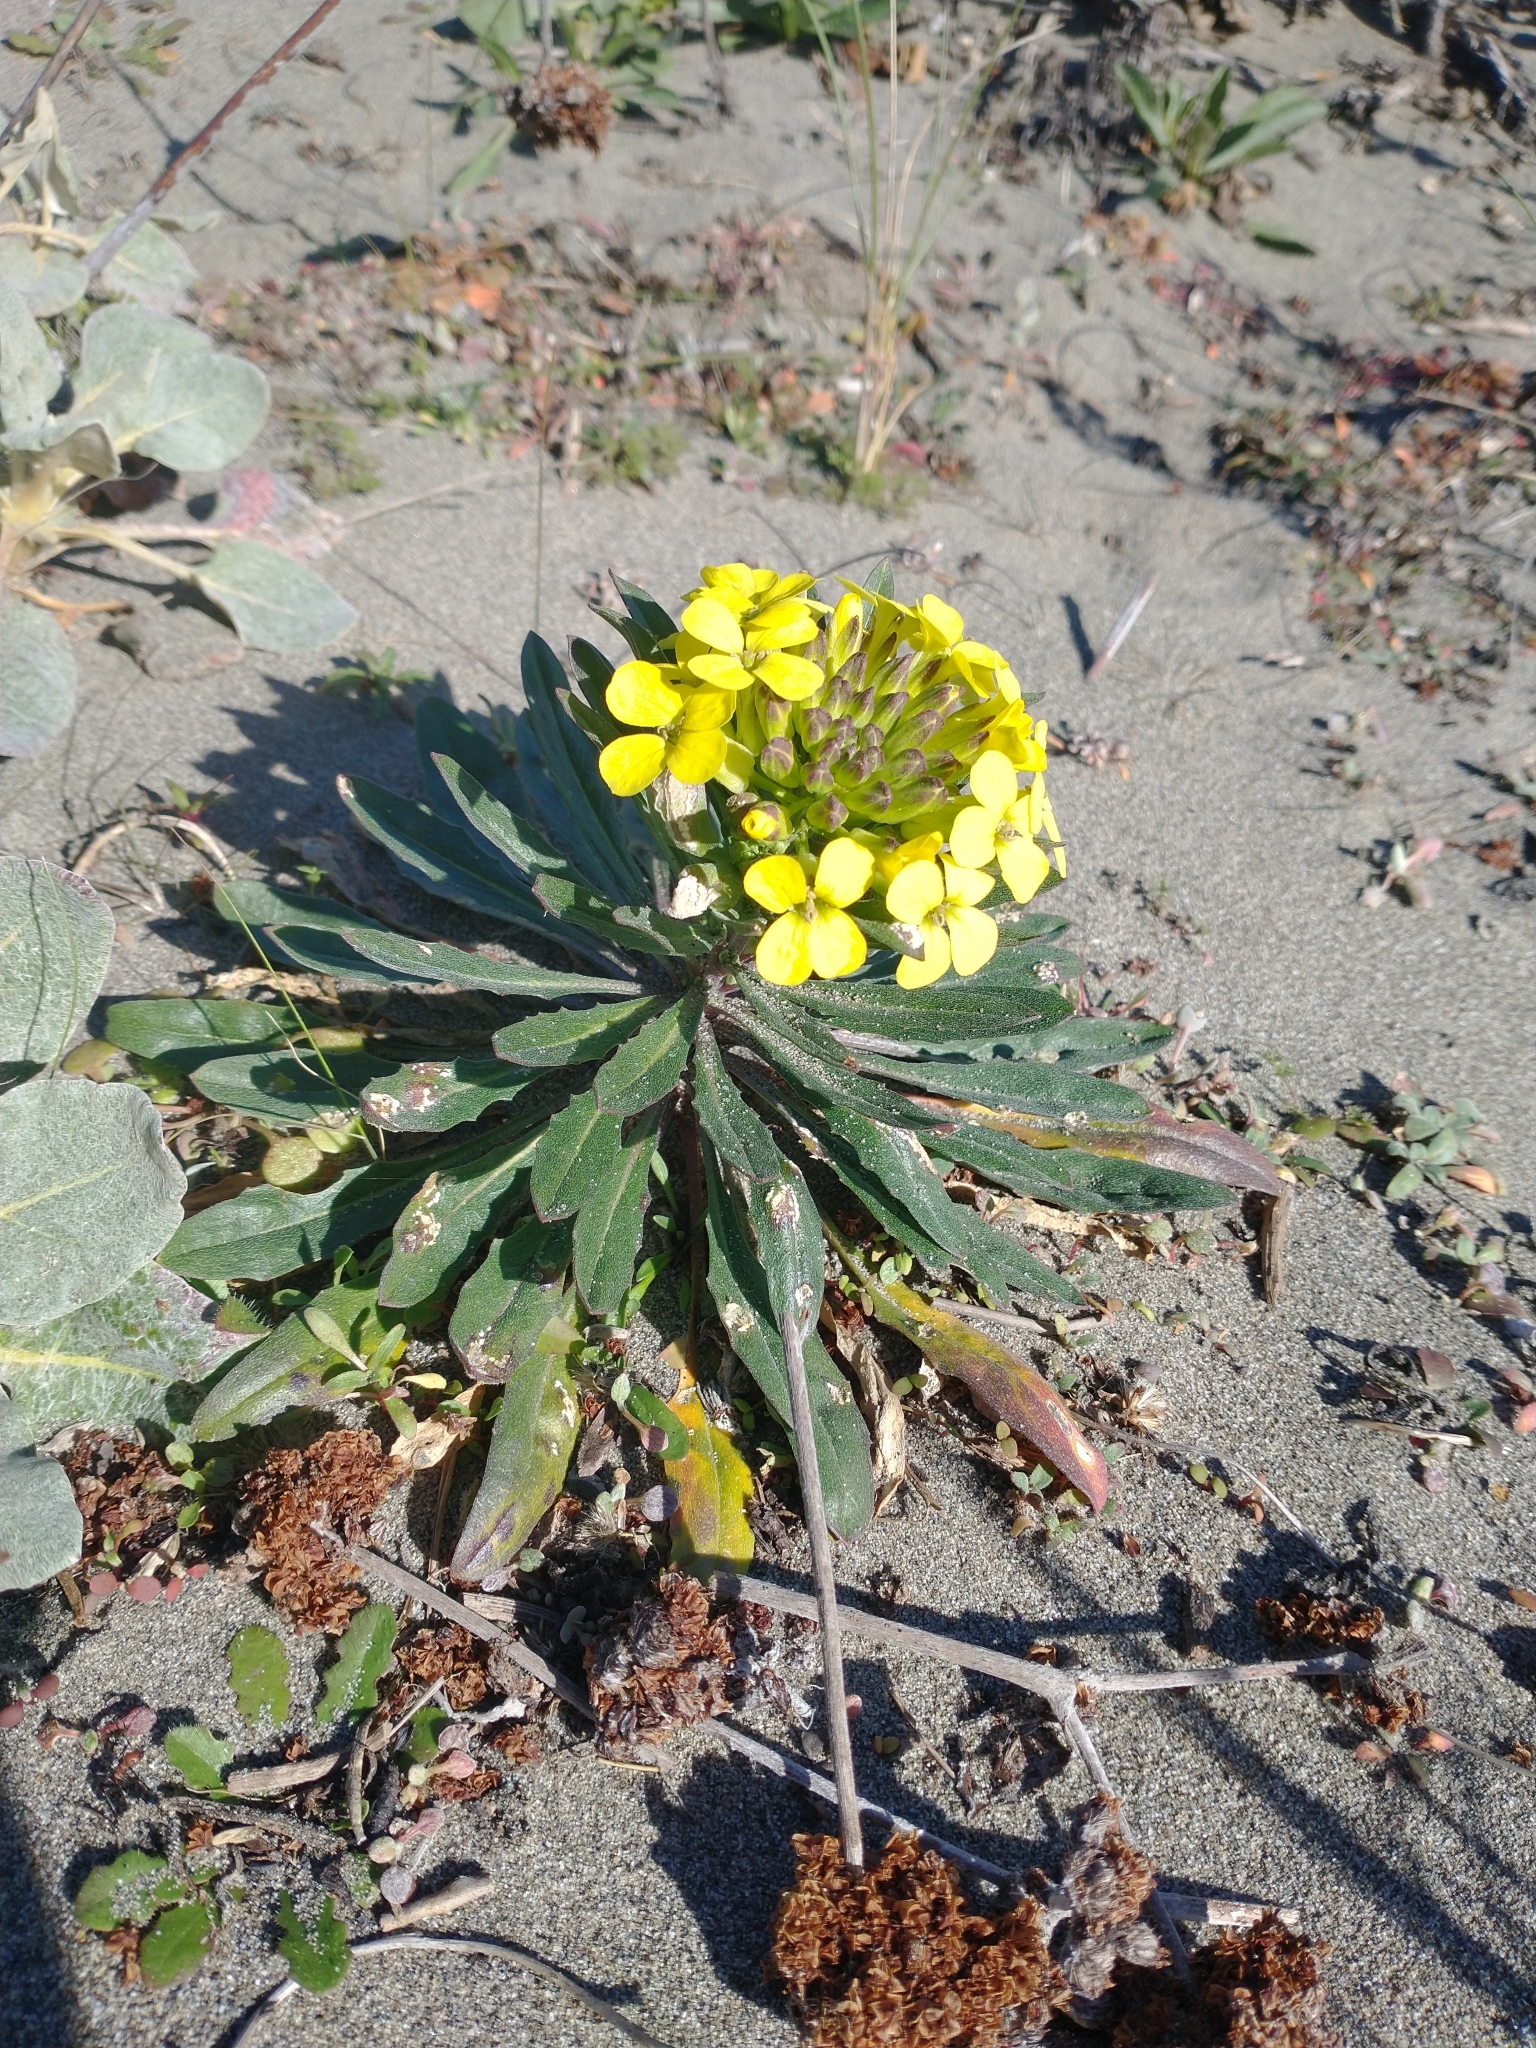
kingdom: Plantae
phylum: Tracheophyta
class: Magnoliopsida
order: Brassicales
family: Brassicaceae
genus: Erysimum
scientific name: Erysimum menziesii
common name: Menzies's wallflower
